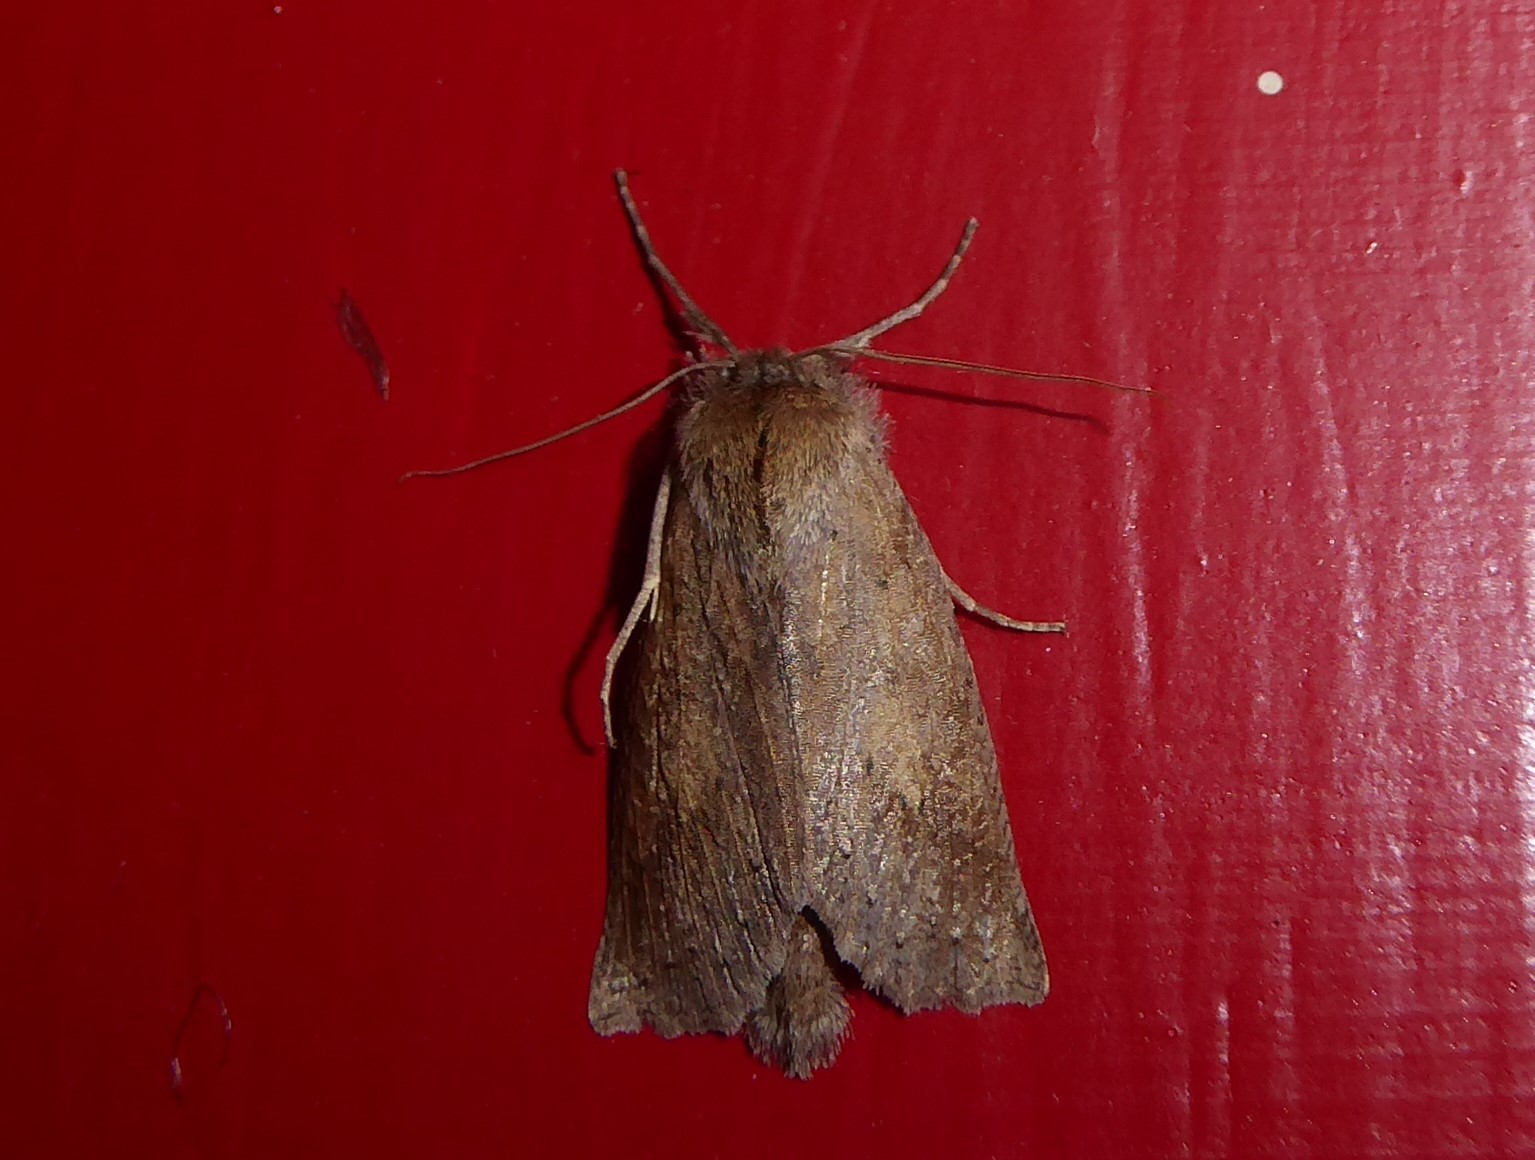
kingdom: Animalia
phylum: Arthropoda
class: Insecta
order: Lepidoptera
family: Geometridae
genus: Declana
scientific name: Declana leptomera
